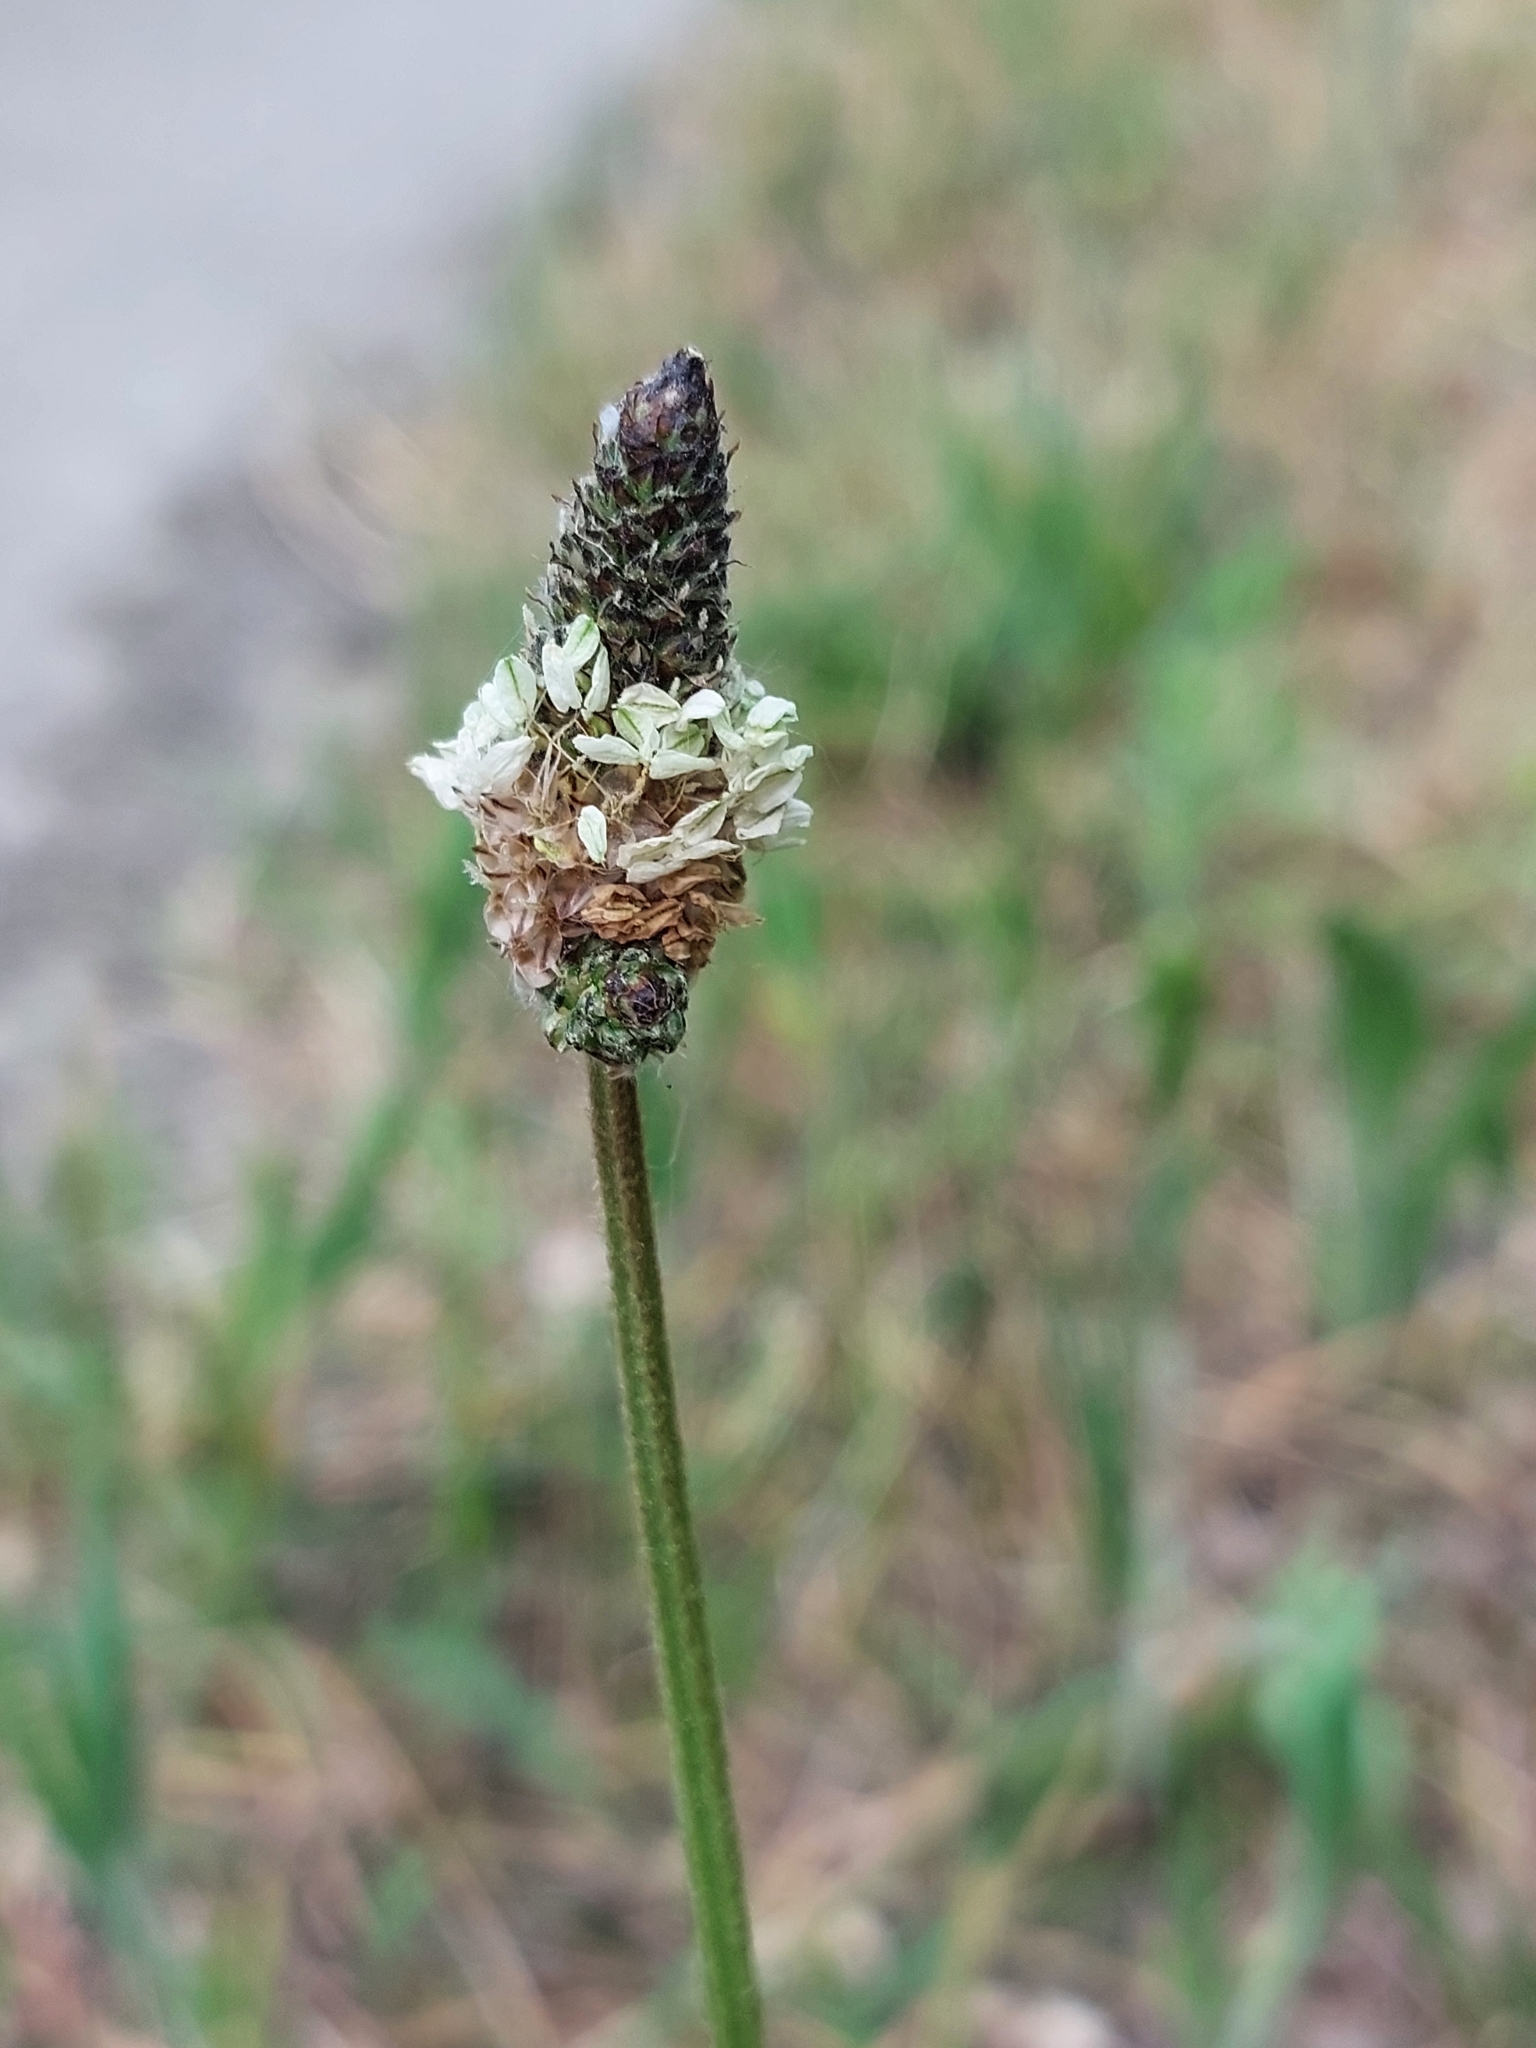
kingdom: Plantae
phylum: Tracheophyta
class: Magnoliopsida
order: Lamiales
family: Plantaginaceae
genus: Plantago
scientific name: Plantago lanceolata
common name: Ribwort plantain
